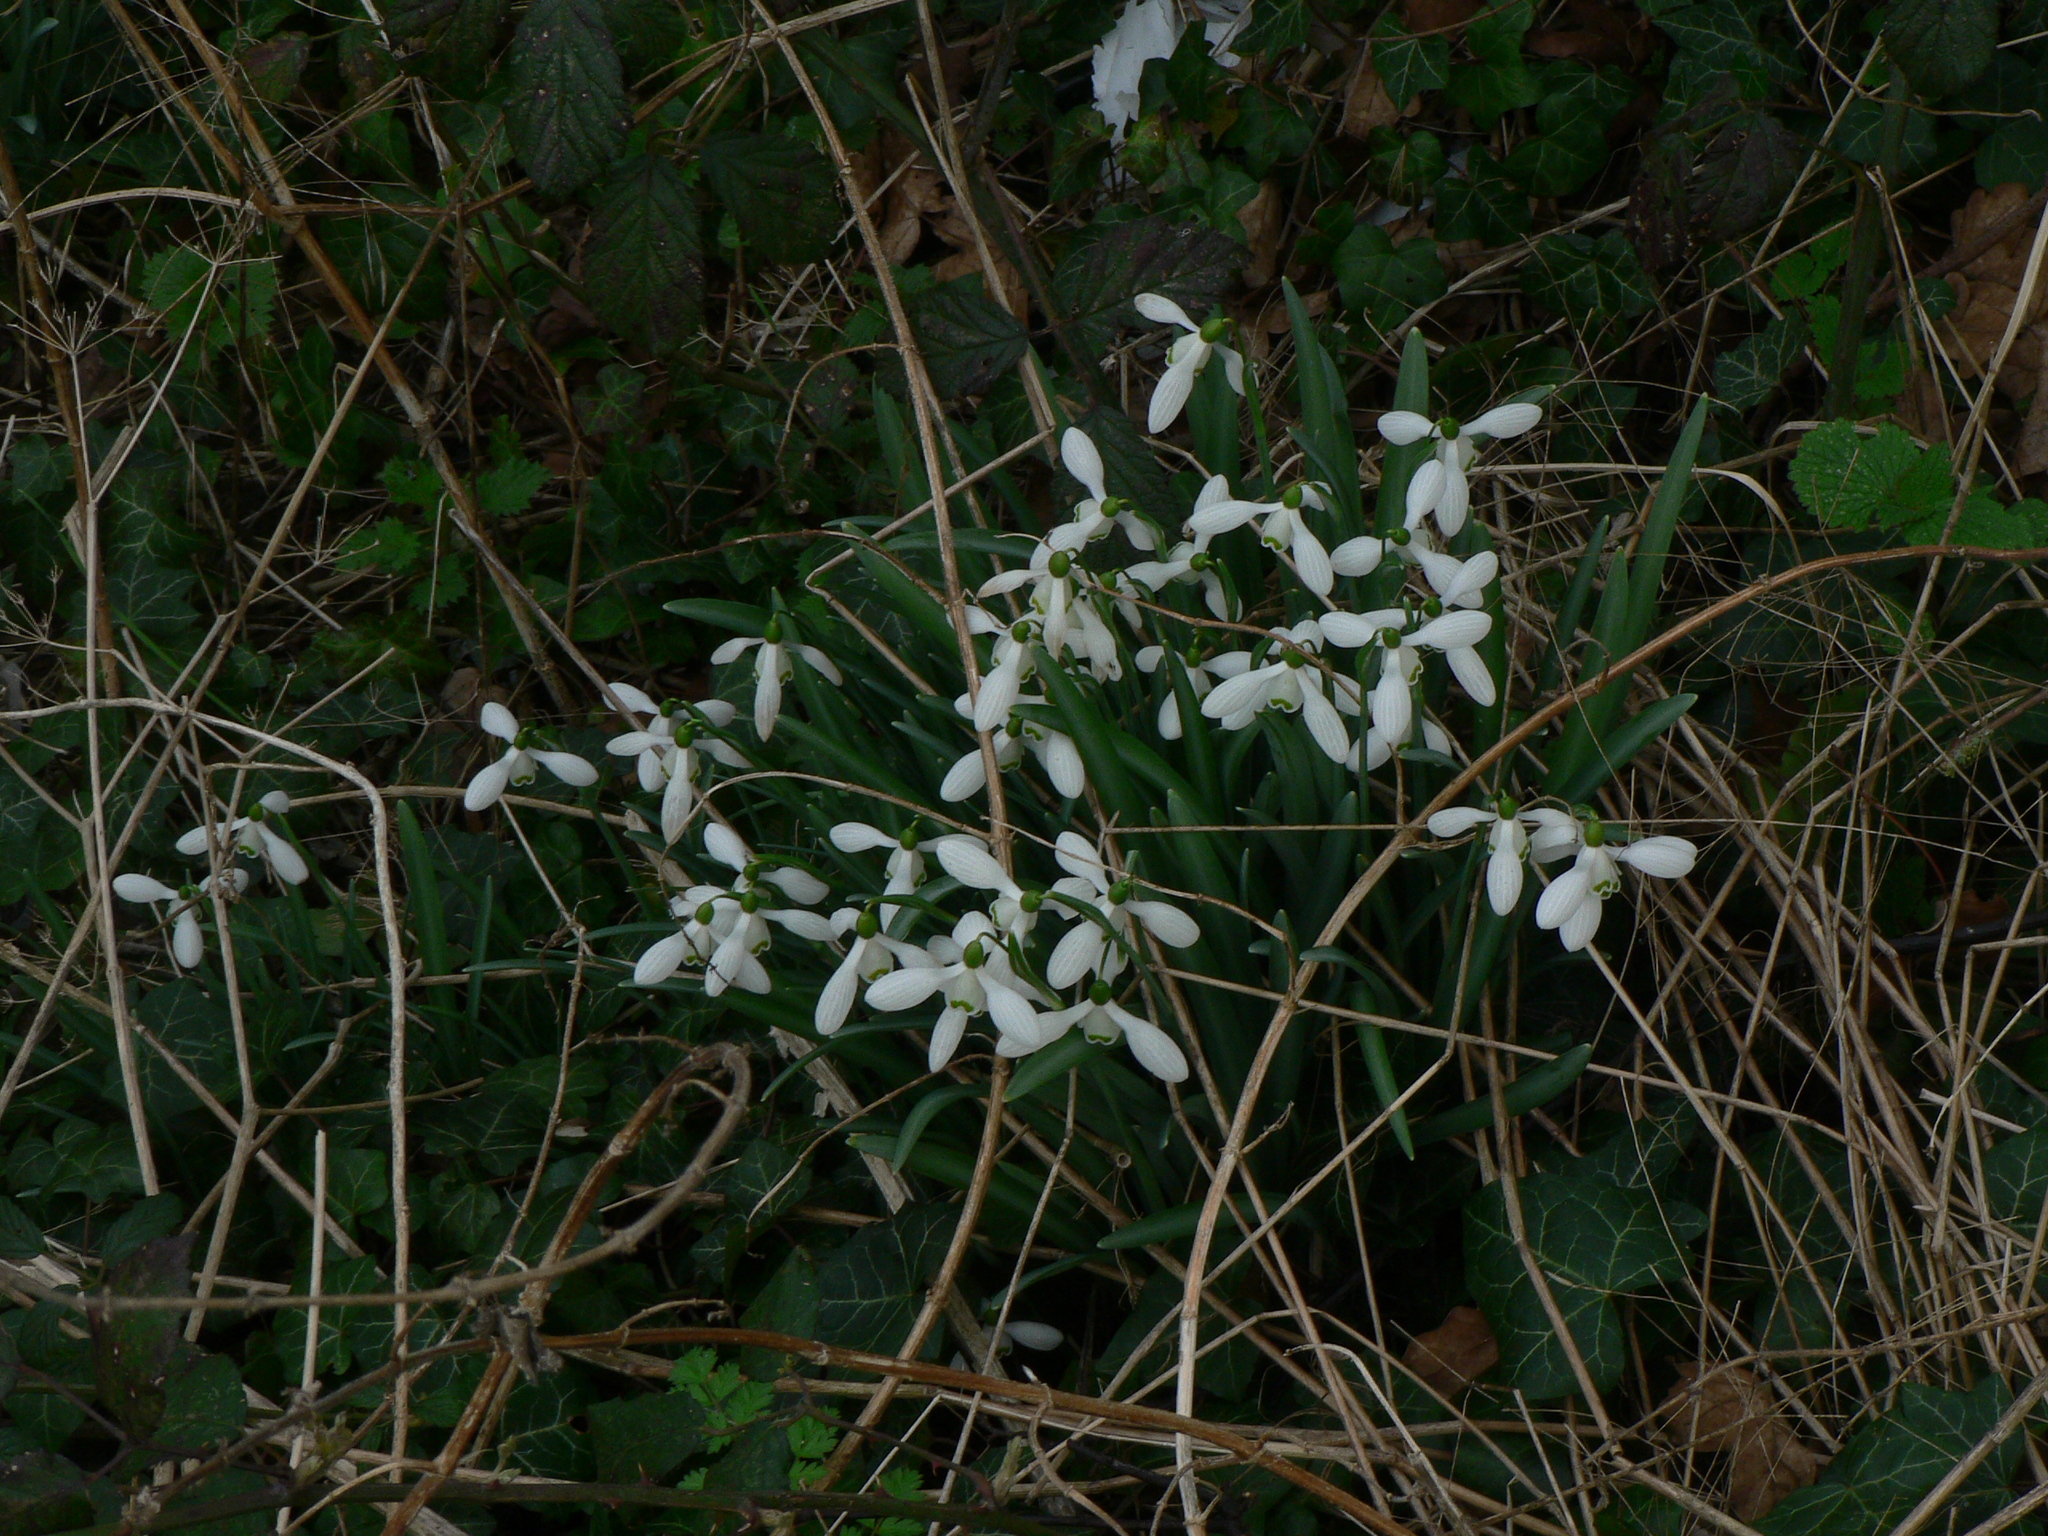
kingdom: Plantae
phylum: Tracheophyta
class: Liliopsida
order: Asparagales
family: Amaryllidaceae
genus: Galanthus
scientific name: Galanthus nivalis
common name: Snowdrop
